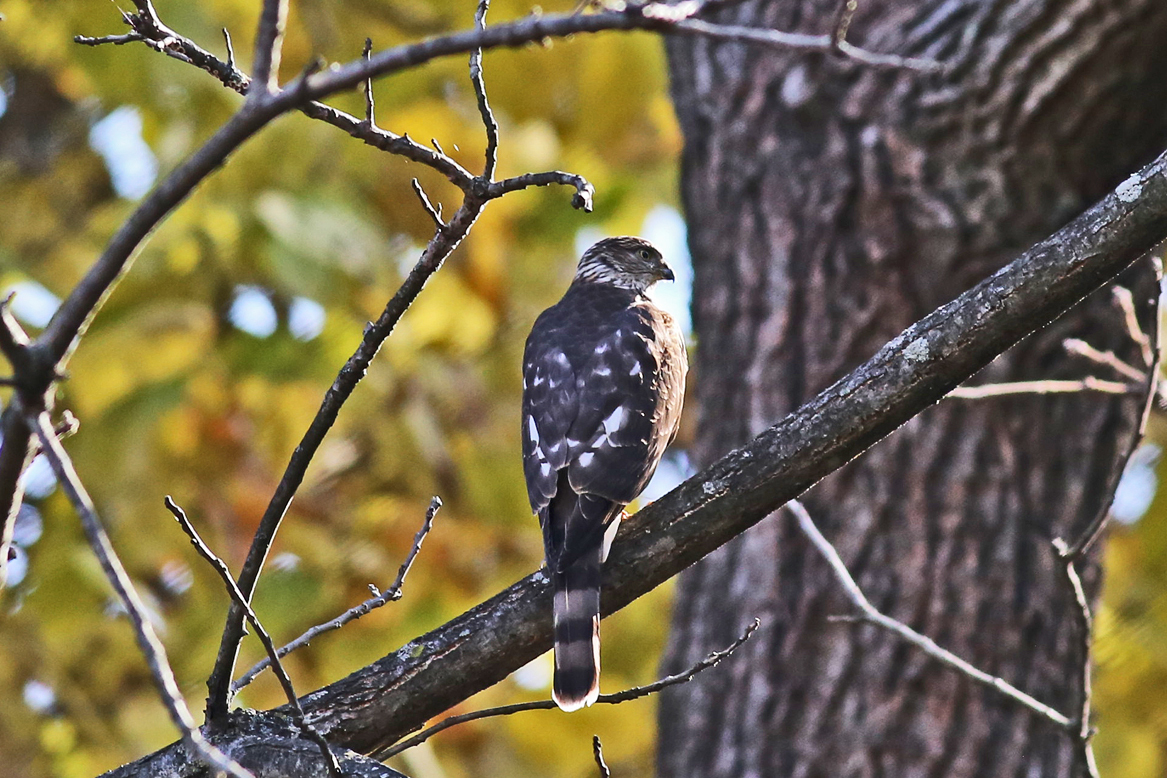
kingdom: Animalia
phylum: Chordata
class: Aves
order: Accipitriformes
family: Accipitridae
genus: Accipiter
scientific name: Accipiter striatus
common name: Sharp-shinned hawk
